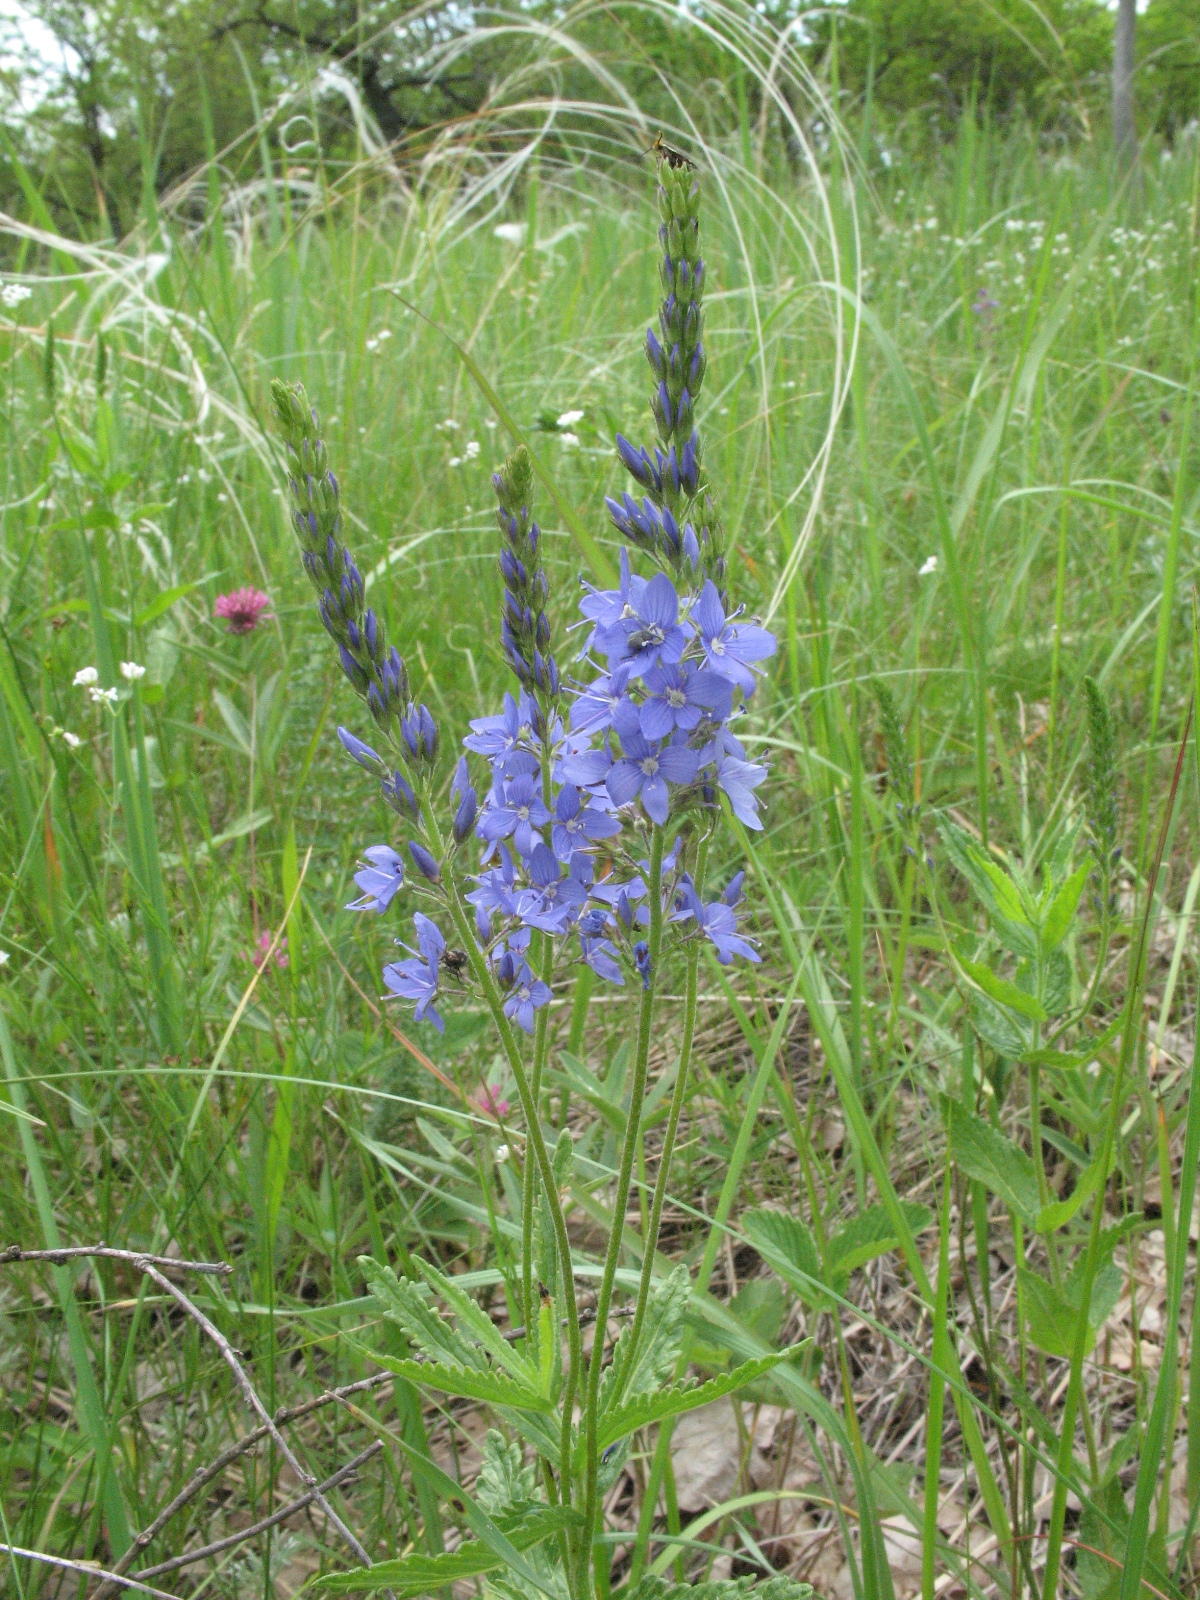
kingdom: Plantae
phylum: Tracheophyta
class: Magnoliopsida
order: Lamiales
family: Plantaginaceae
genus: Veronica
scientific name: Veronica teucrium
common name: Large speedwell
